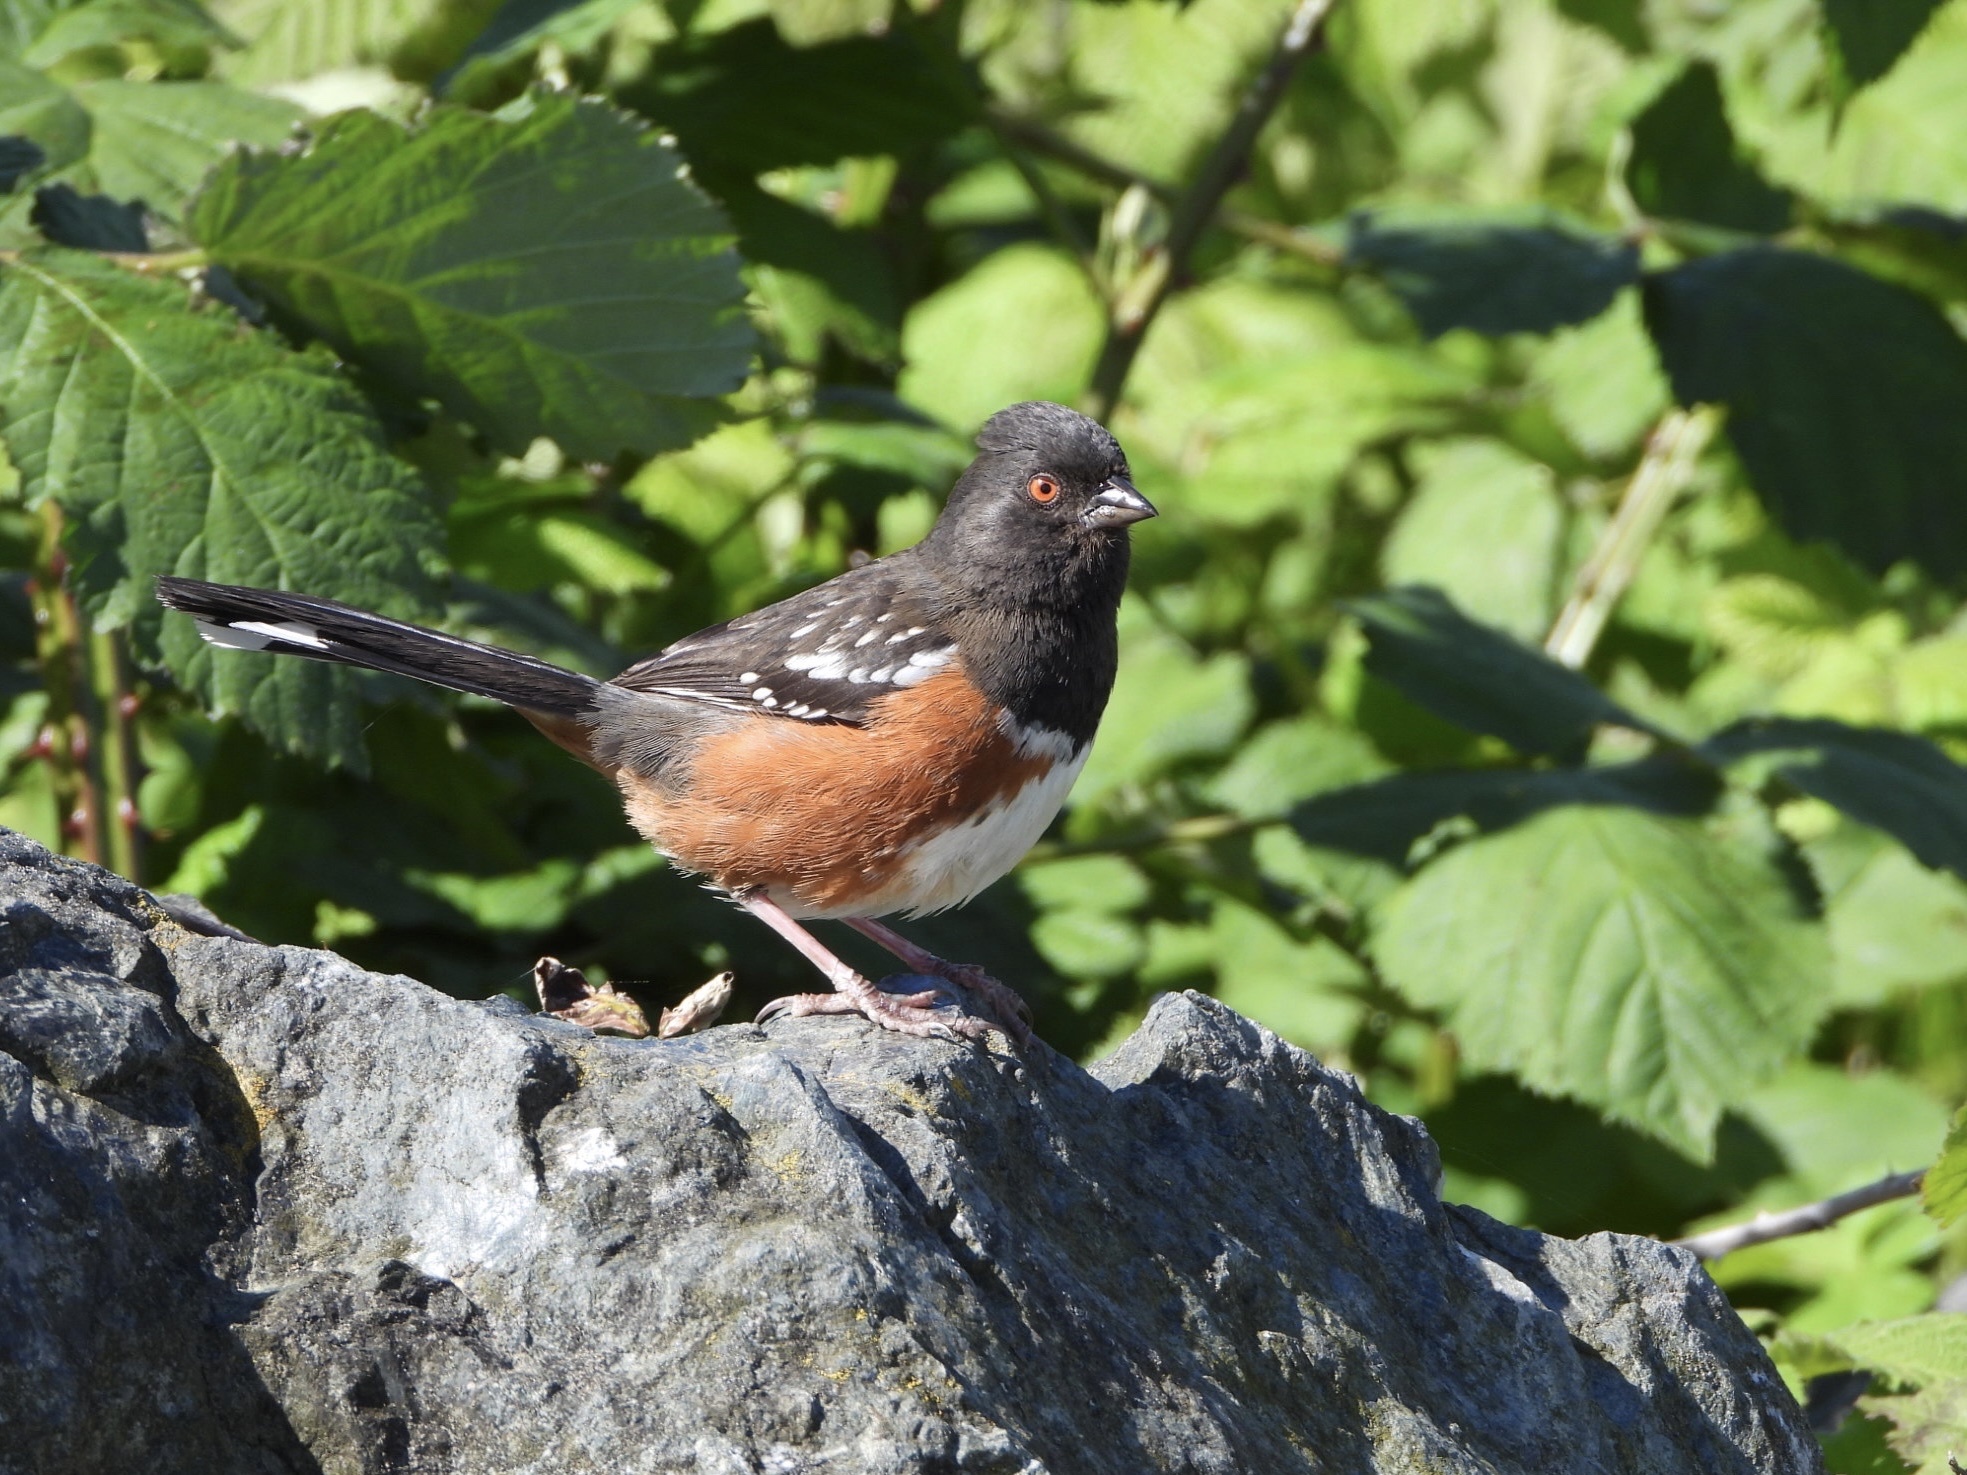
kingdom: Animalia
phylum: Chordata
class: Aves
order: Passeriformes
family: Passerellidae
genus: Pipilo
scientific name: Pipilo maculatus
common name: Spotted towhee
